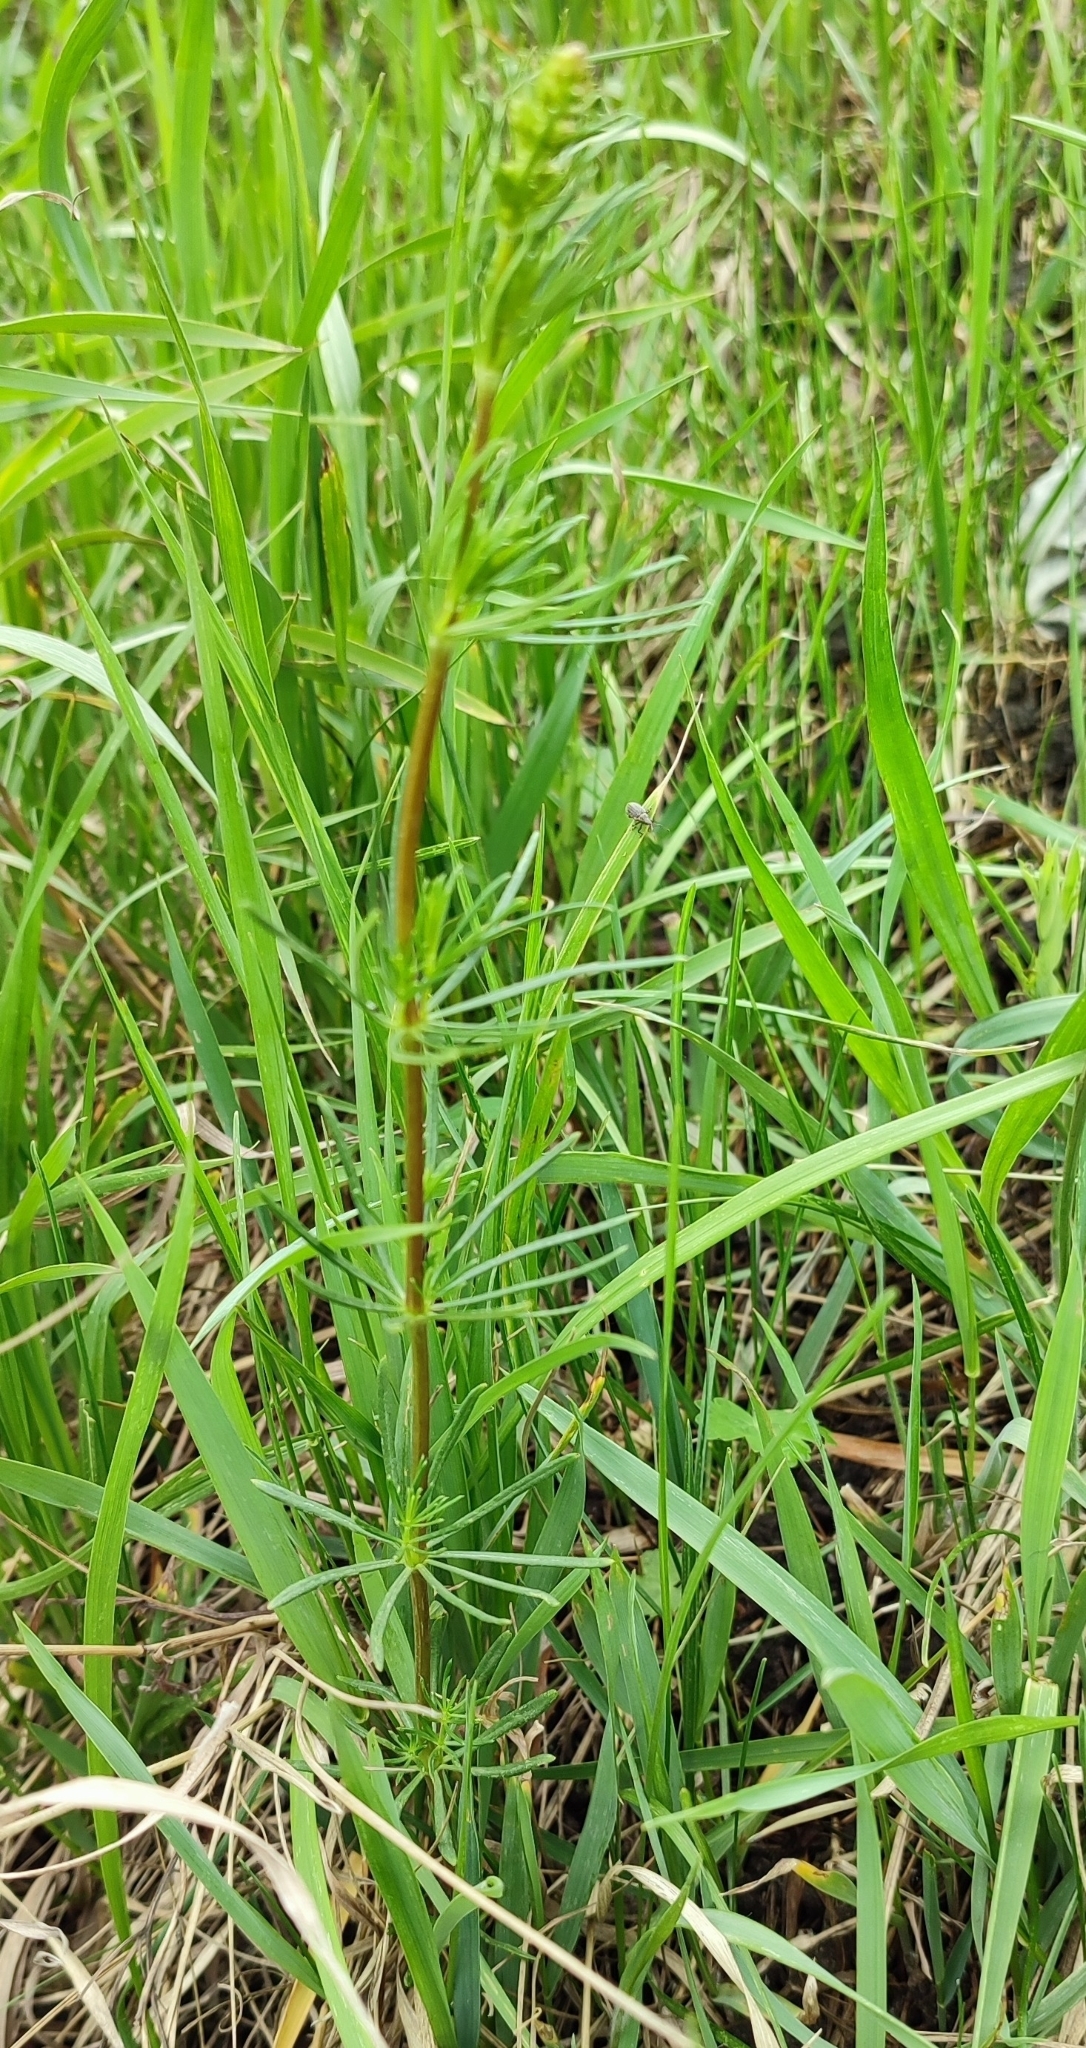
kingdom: Plantae
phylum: Tracheophyta
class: Magnoliopsida
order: Gentianales
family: Rubiaceae
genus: Galium
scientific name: Galium verum
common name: Lady's bedstraw
